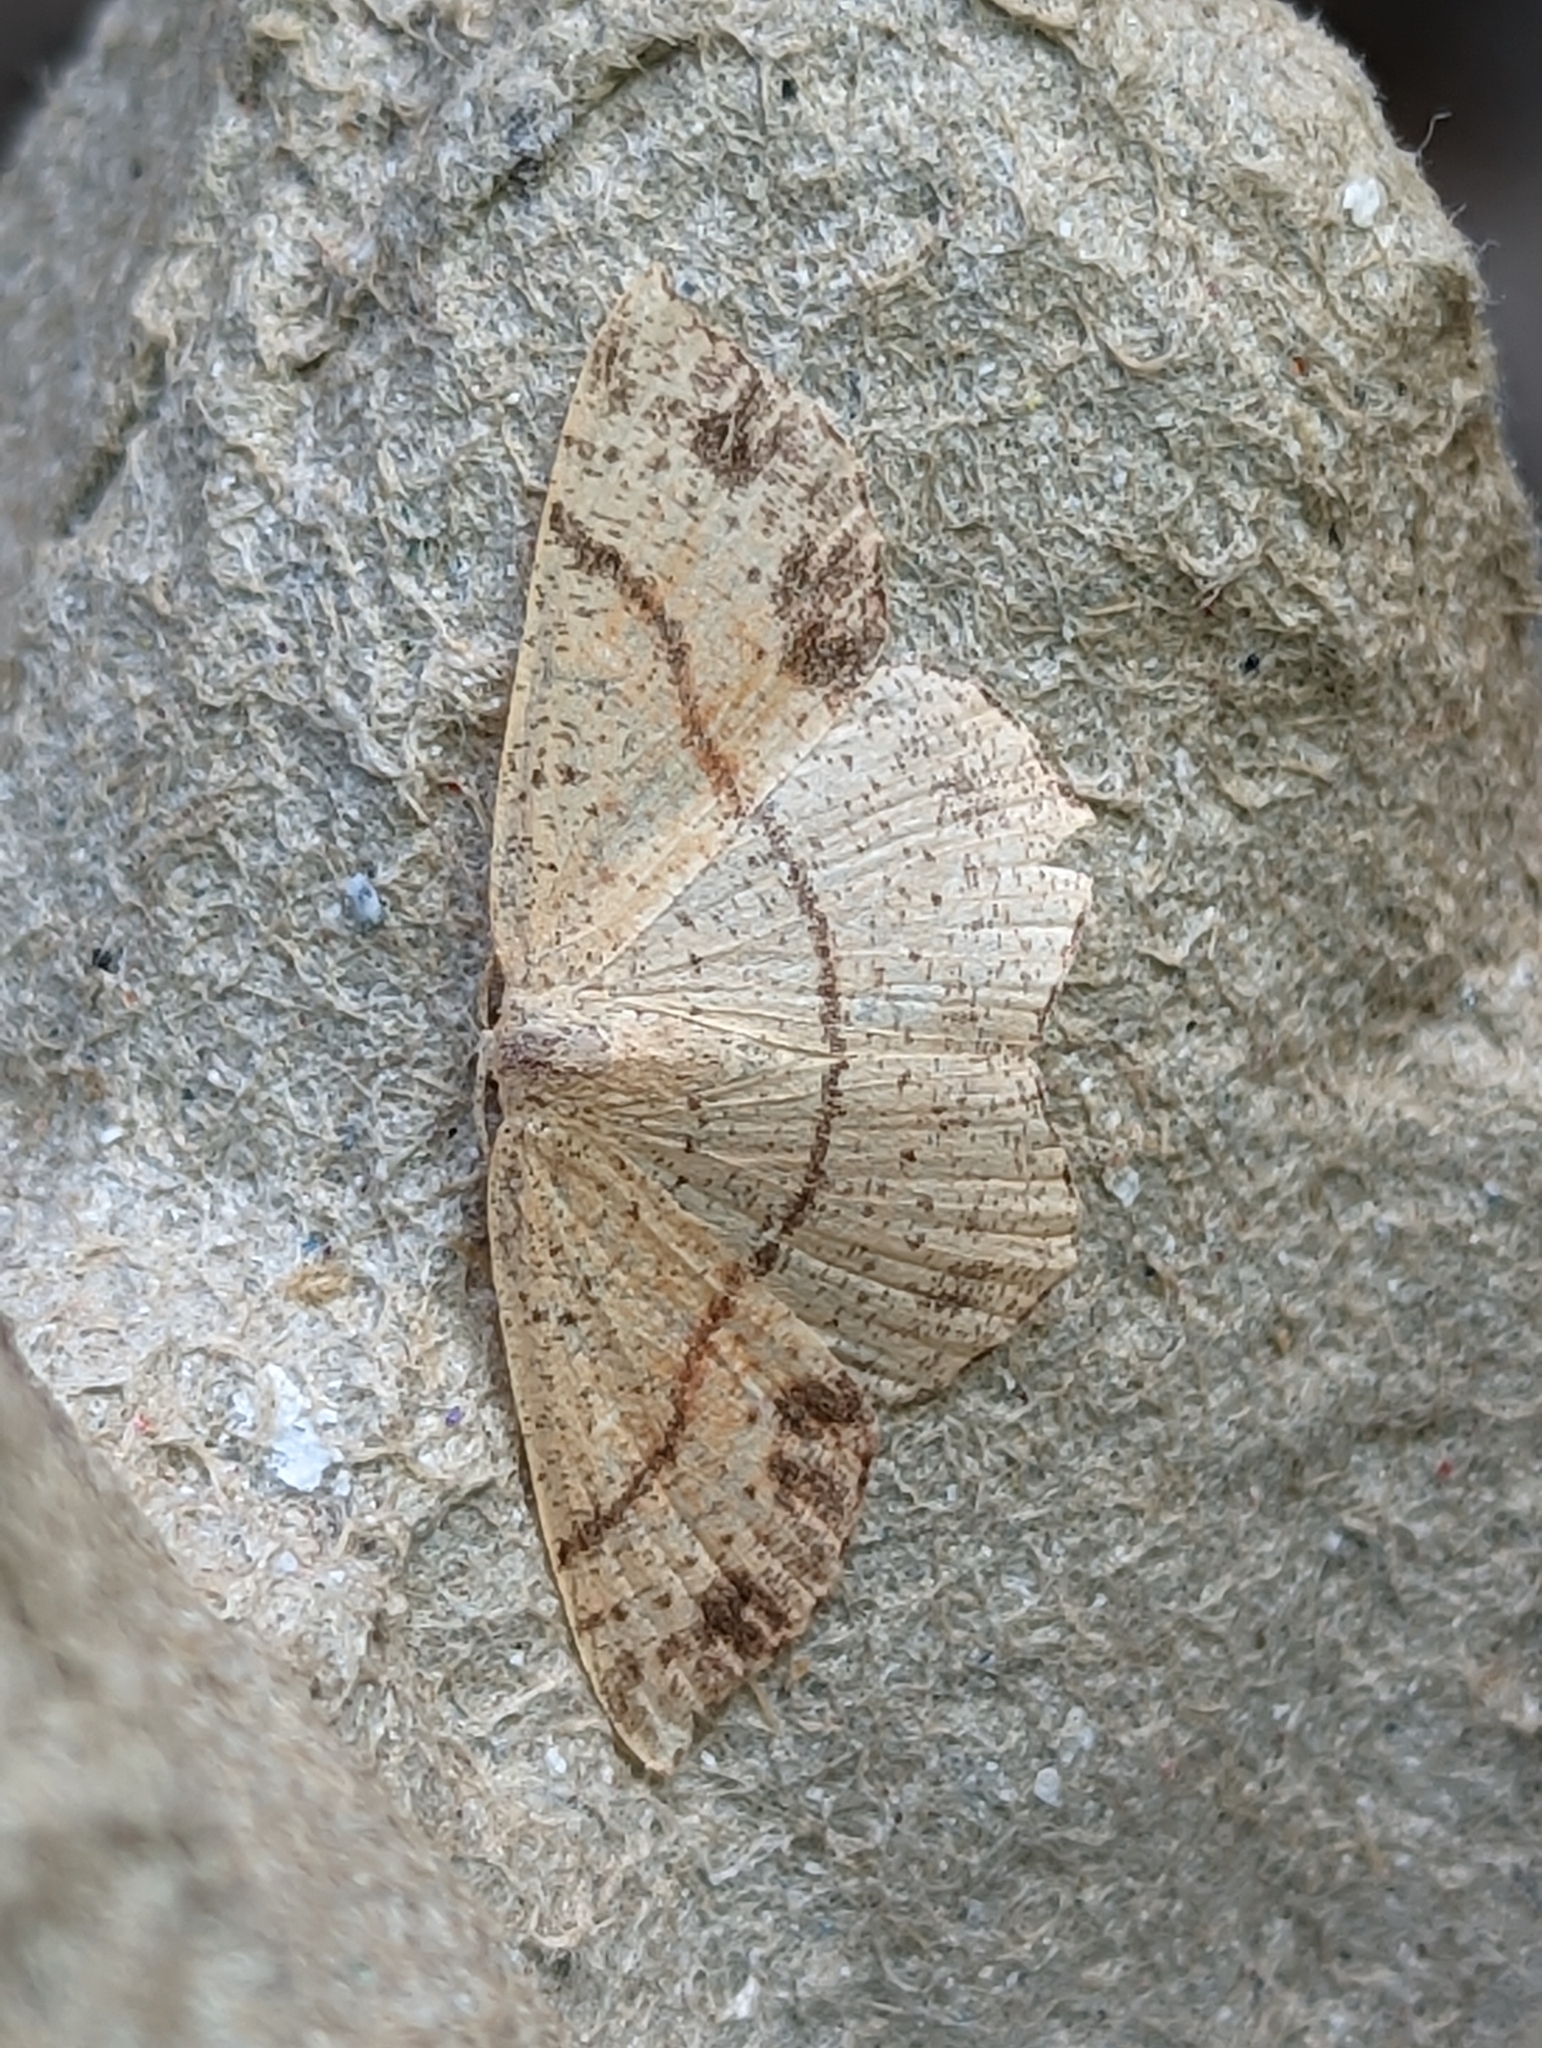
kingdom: Animalia
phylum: Arthropoda
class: Insecta
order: Lepidoptera
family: Geometridae
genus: Cyclophora
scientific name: Cyclophora punctaria
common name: Maiden's blush
